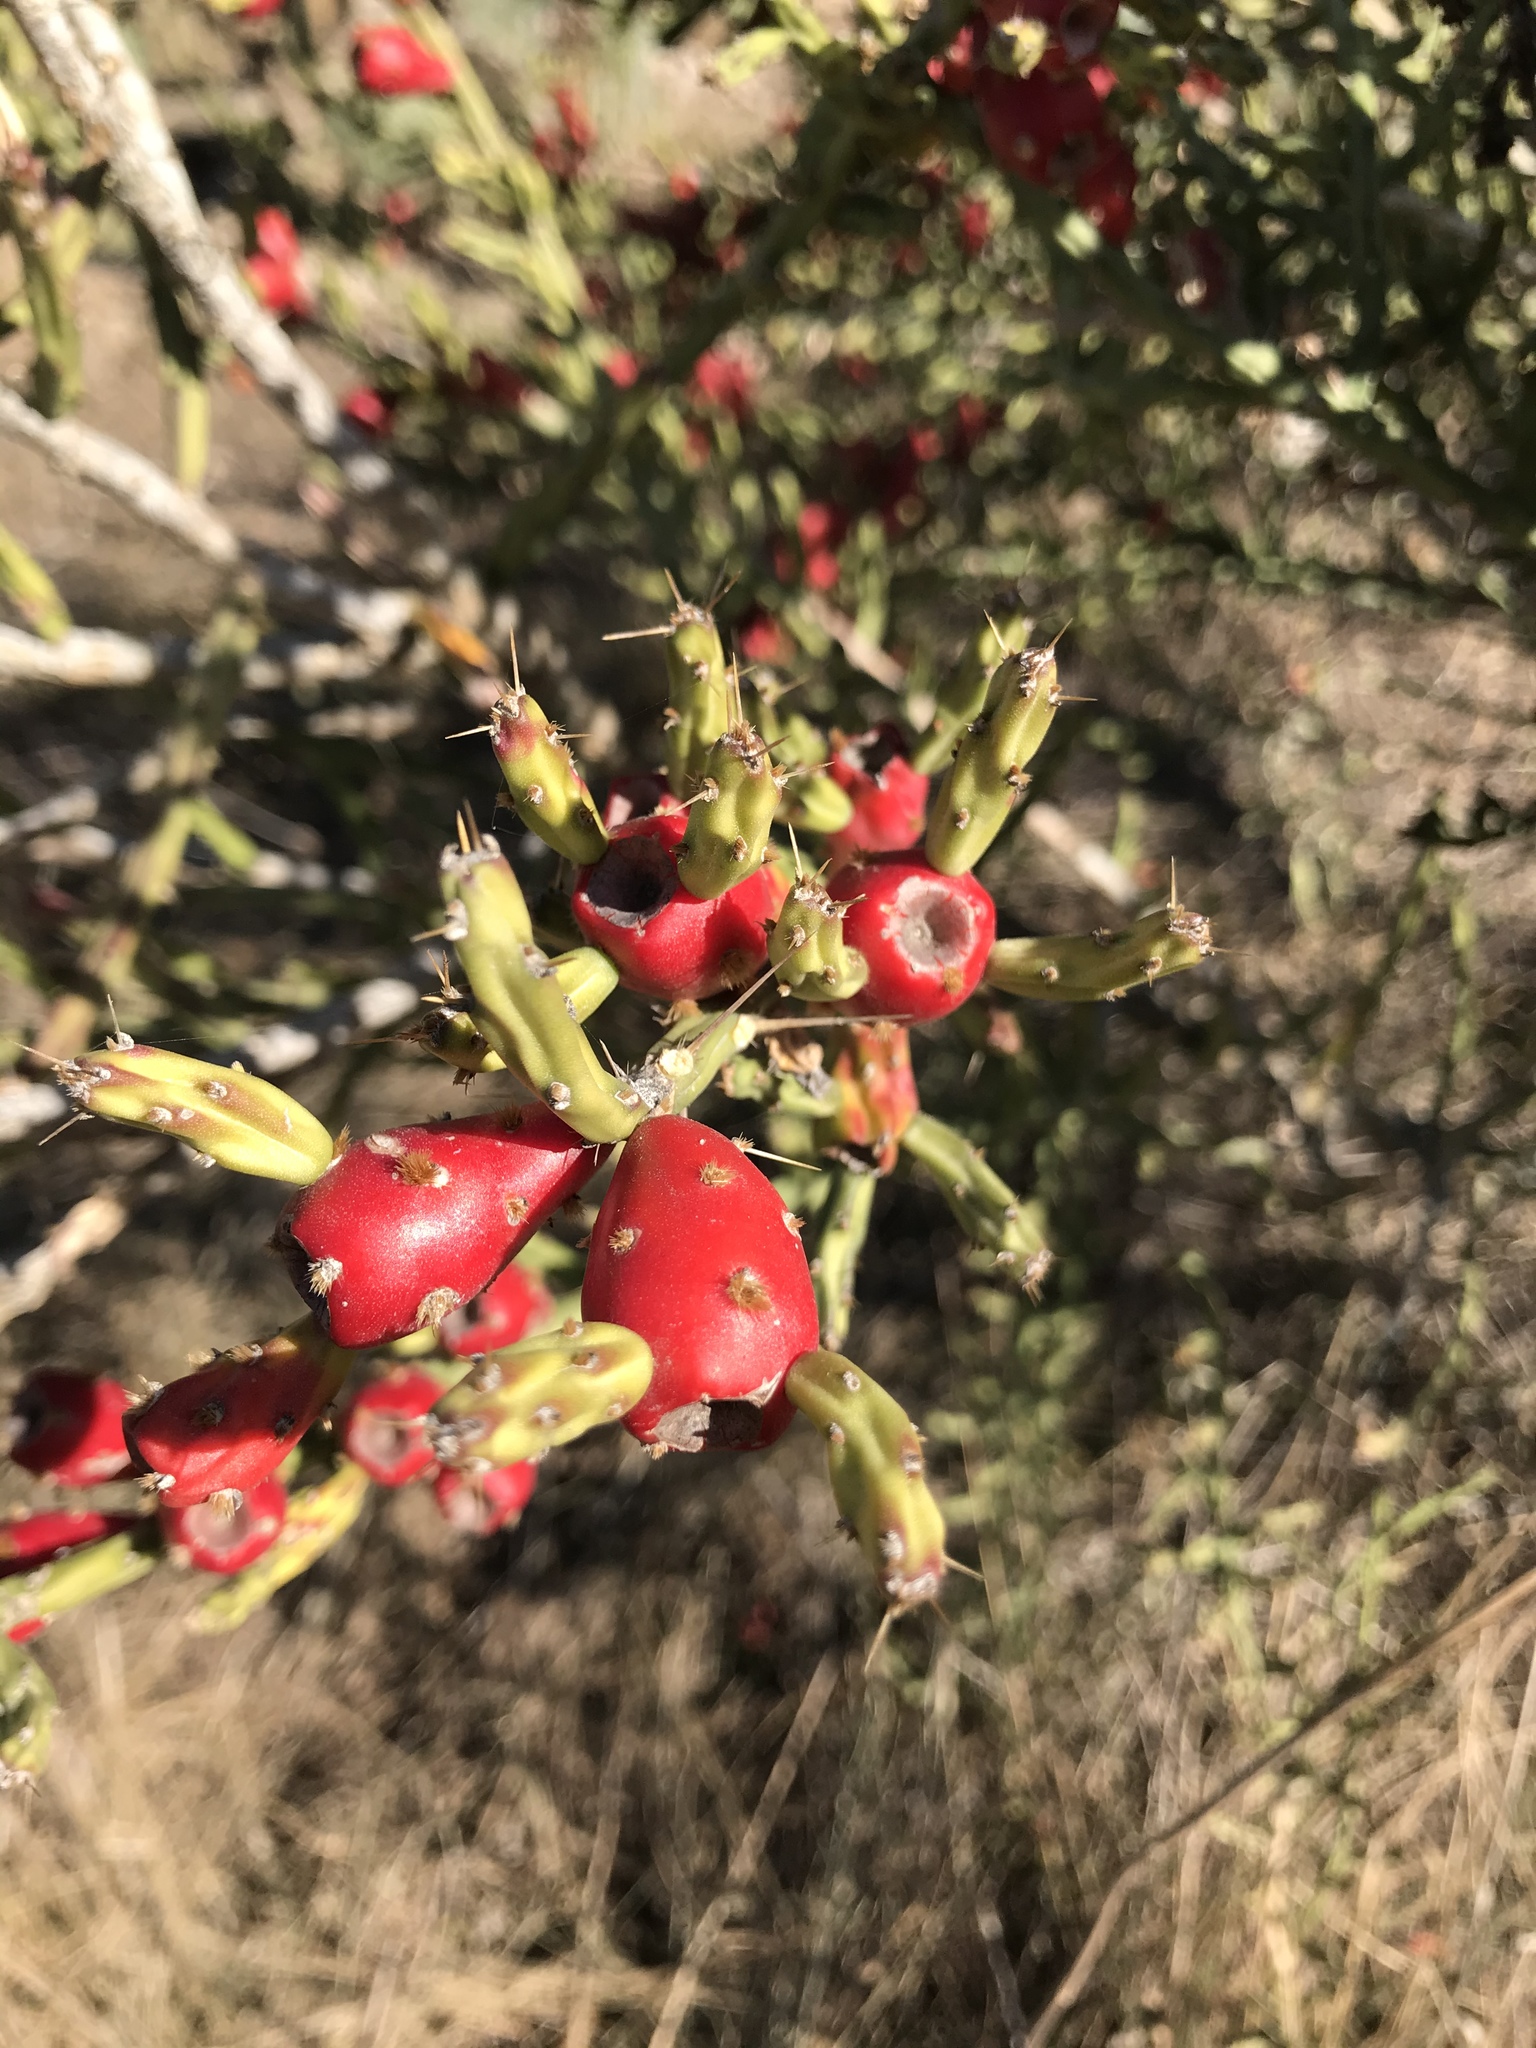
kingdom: Plantae
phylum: Tracheophyta
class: Magnoliopsida
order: Caryophyllales
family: Cactaceae
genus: Cylindropuntia
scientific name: Cylindropuntia leptocaulis
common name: Christmas cactus
